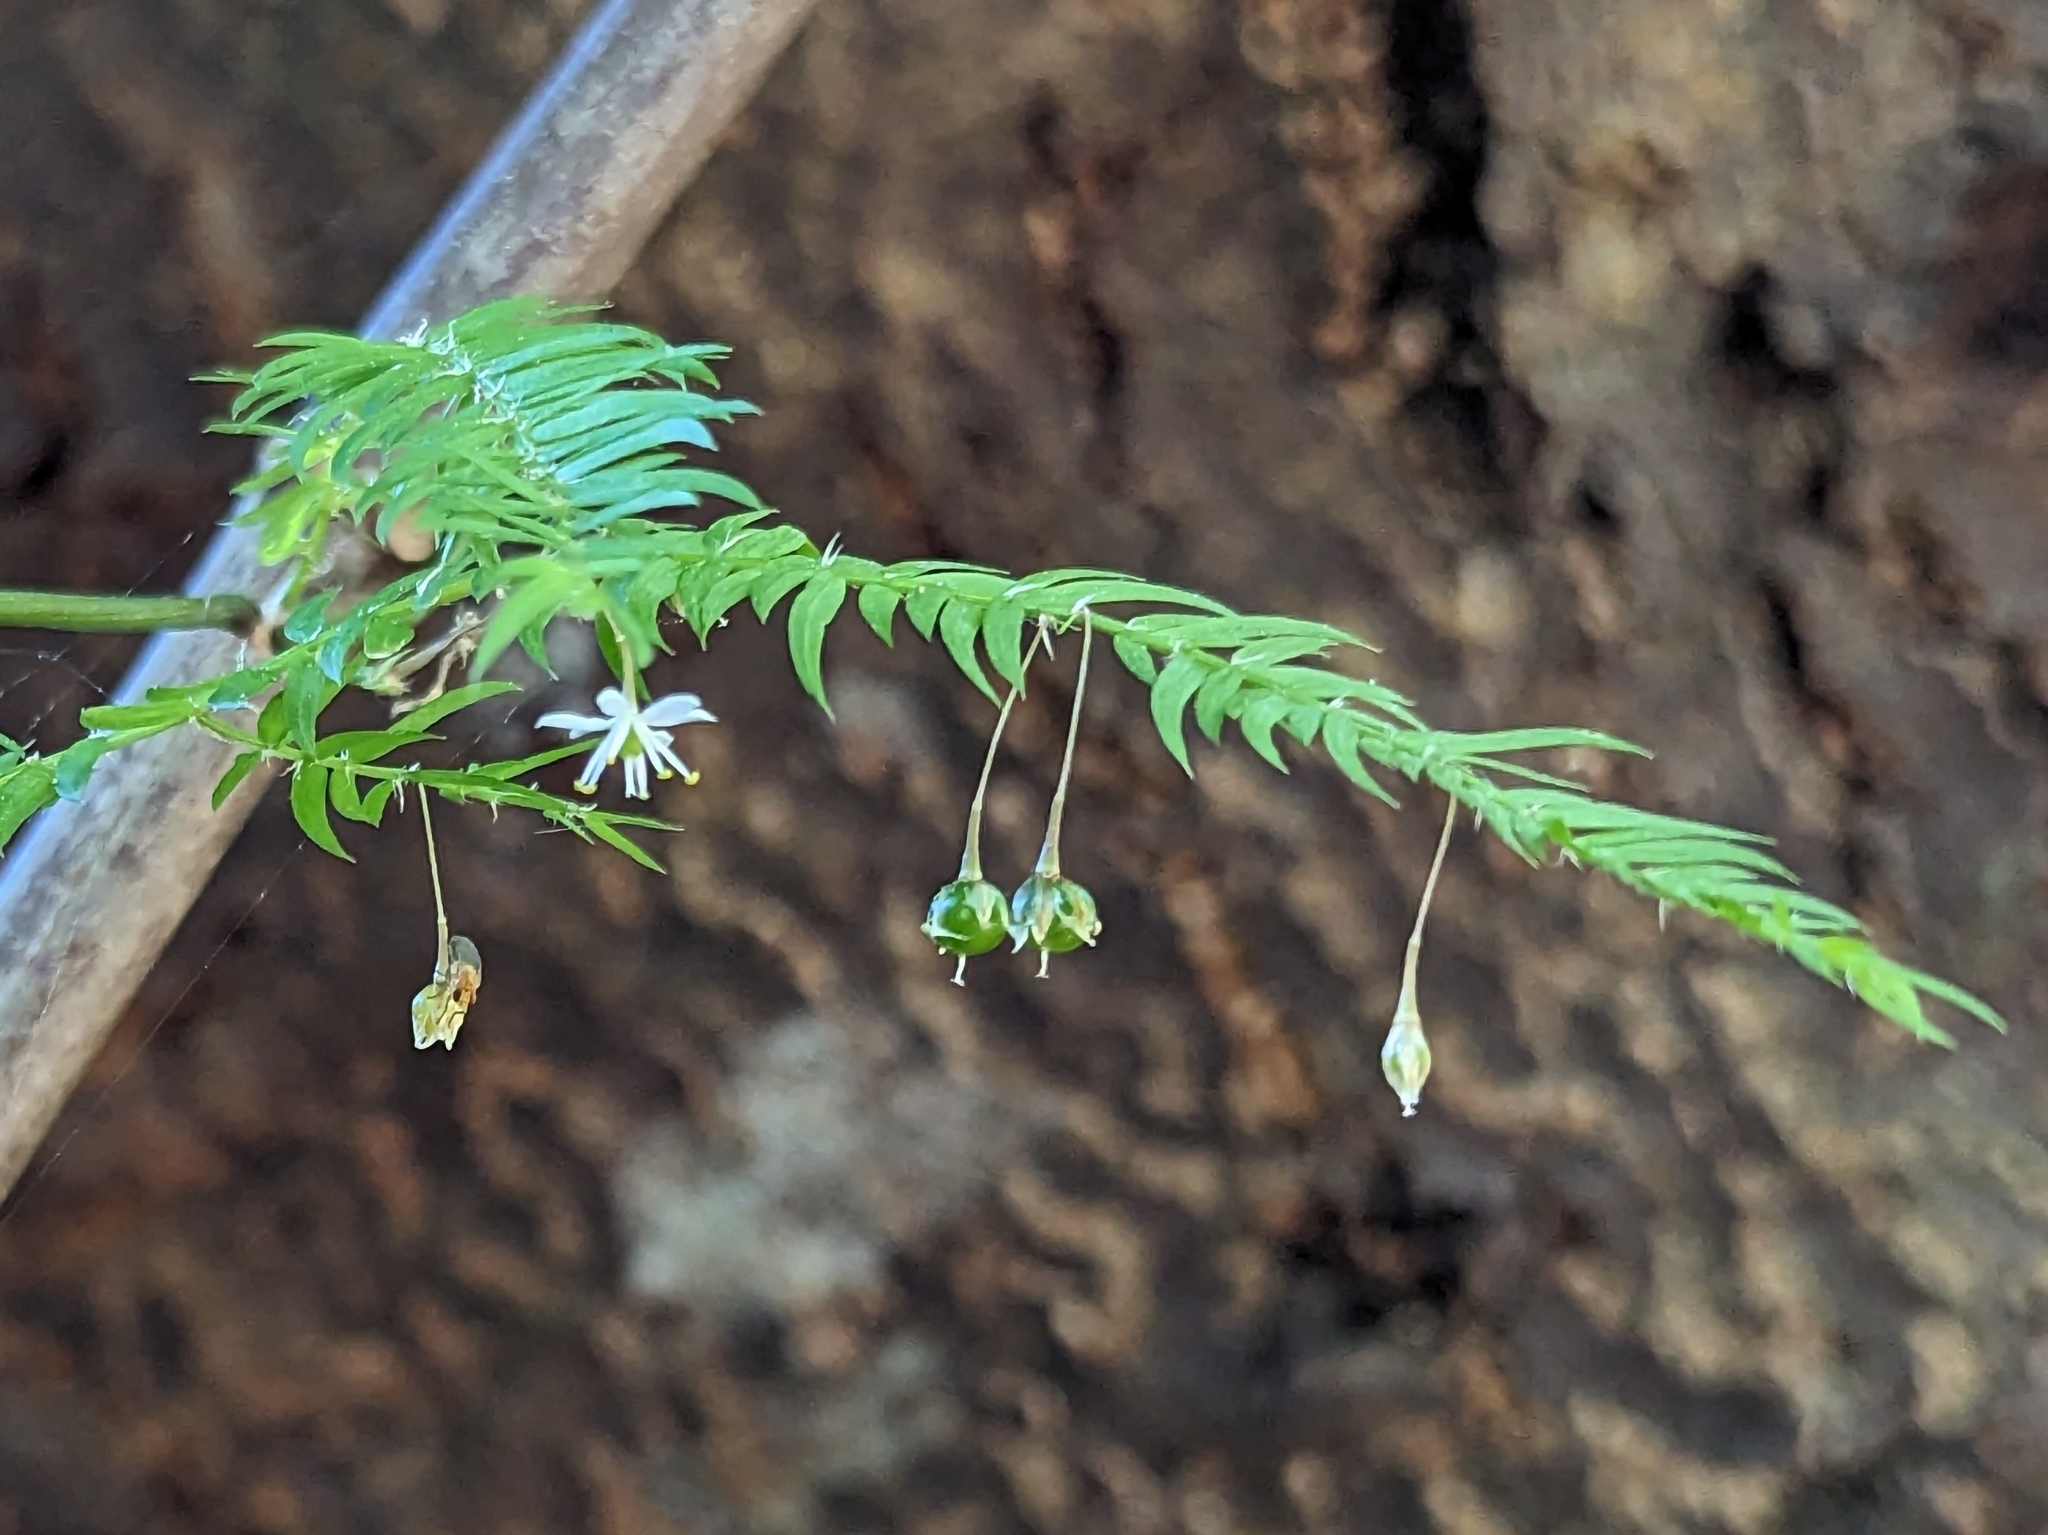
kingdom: Plantae
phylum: Tracheophyta
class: Liliopsida
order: Asparagales
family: Asparagaceae
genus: Asparagus
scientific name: Asparagus scandens
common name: Asparagus-fern
